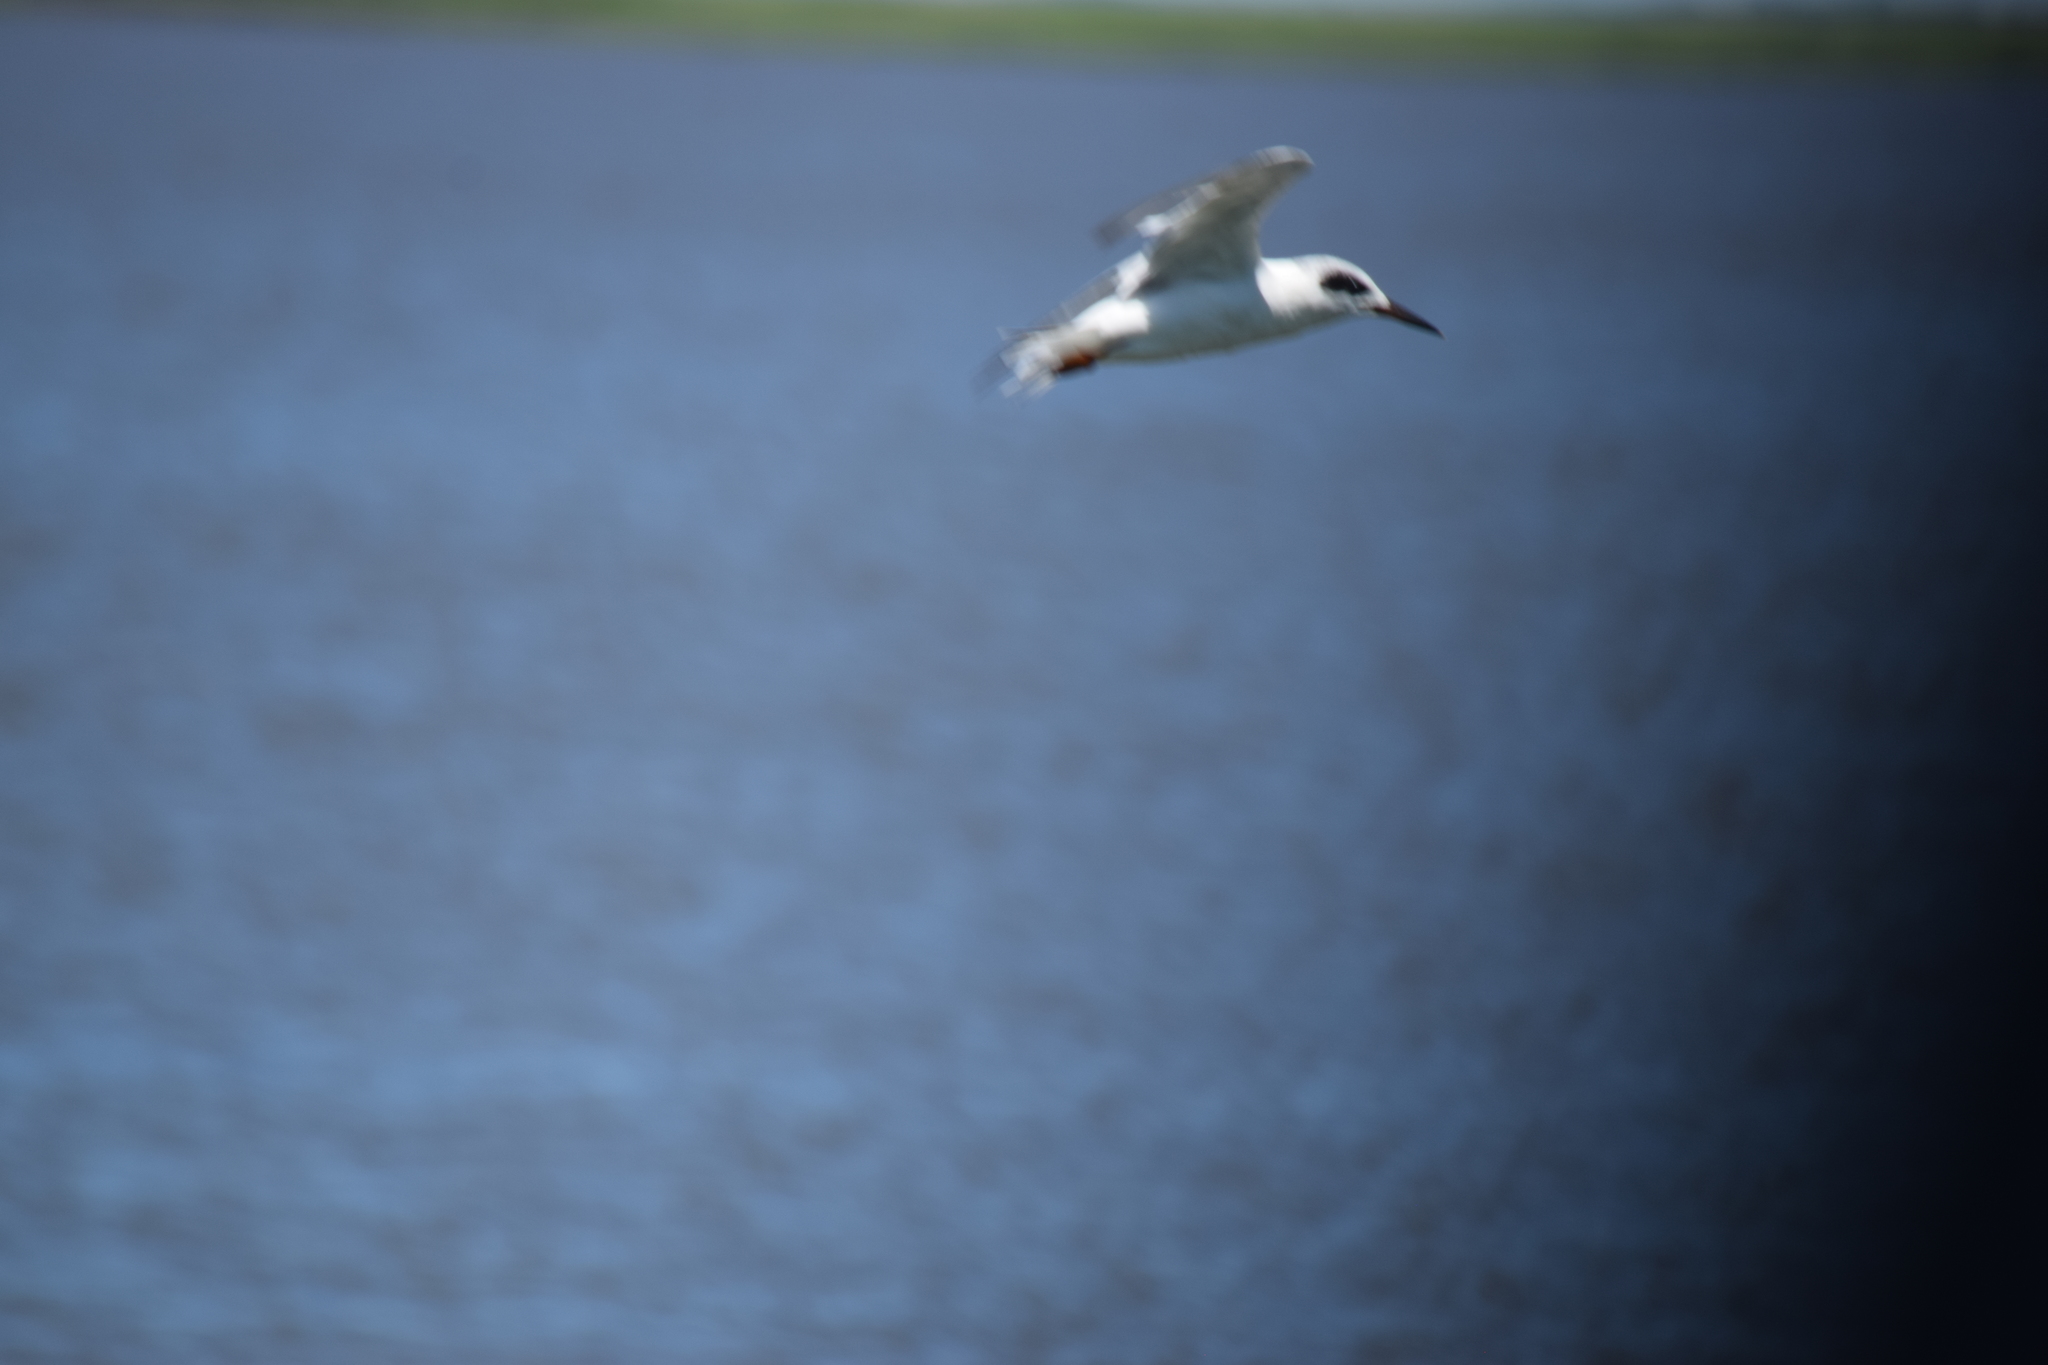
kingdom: Animalia
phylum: Chordata
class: Aves
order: Charadriiformes
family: Laridae
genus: Sterna
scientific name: Sterna forsteri
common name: Forster's tern
